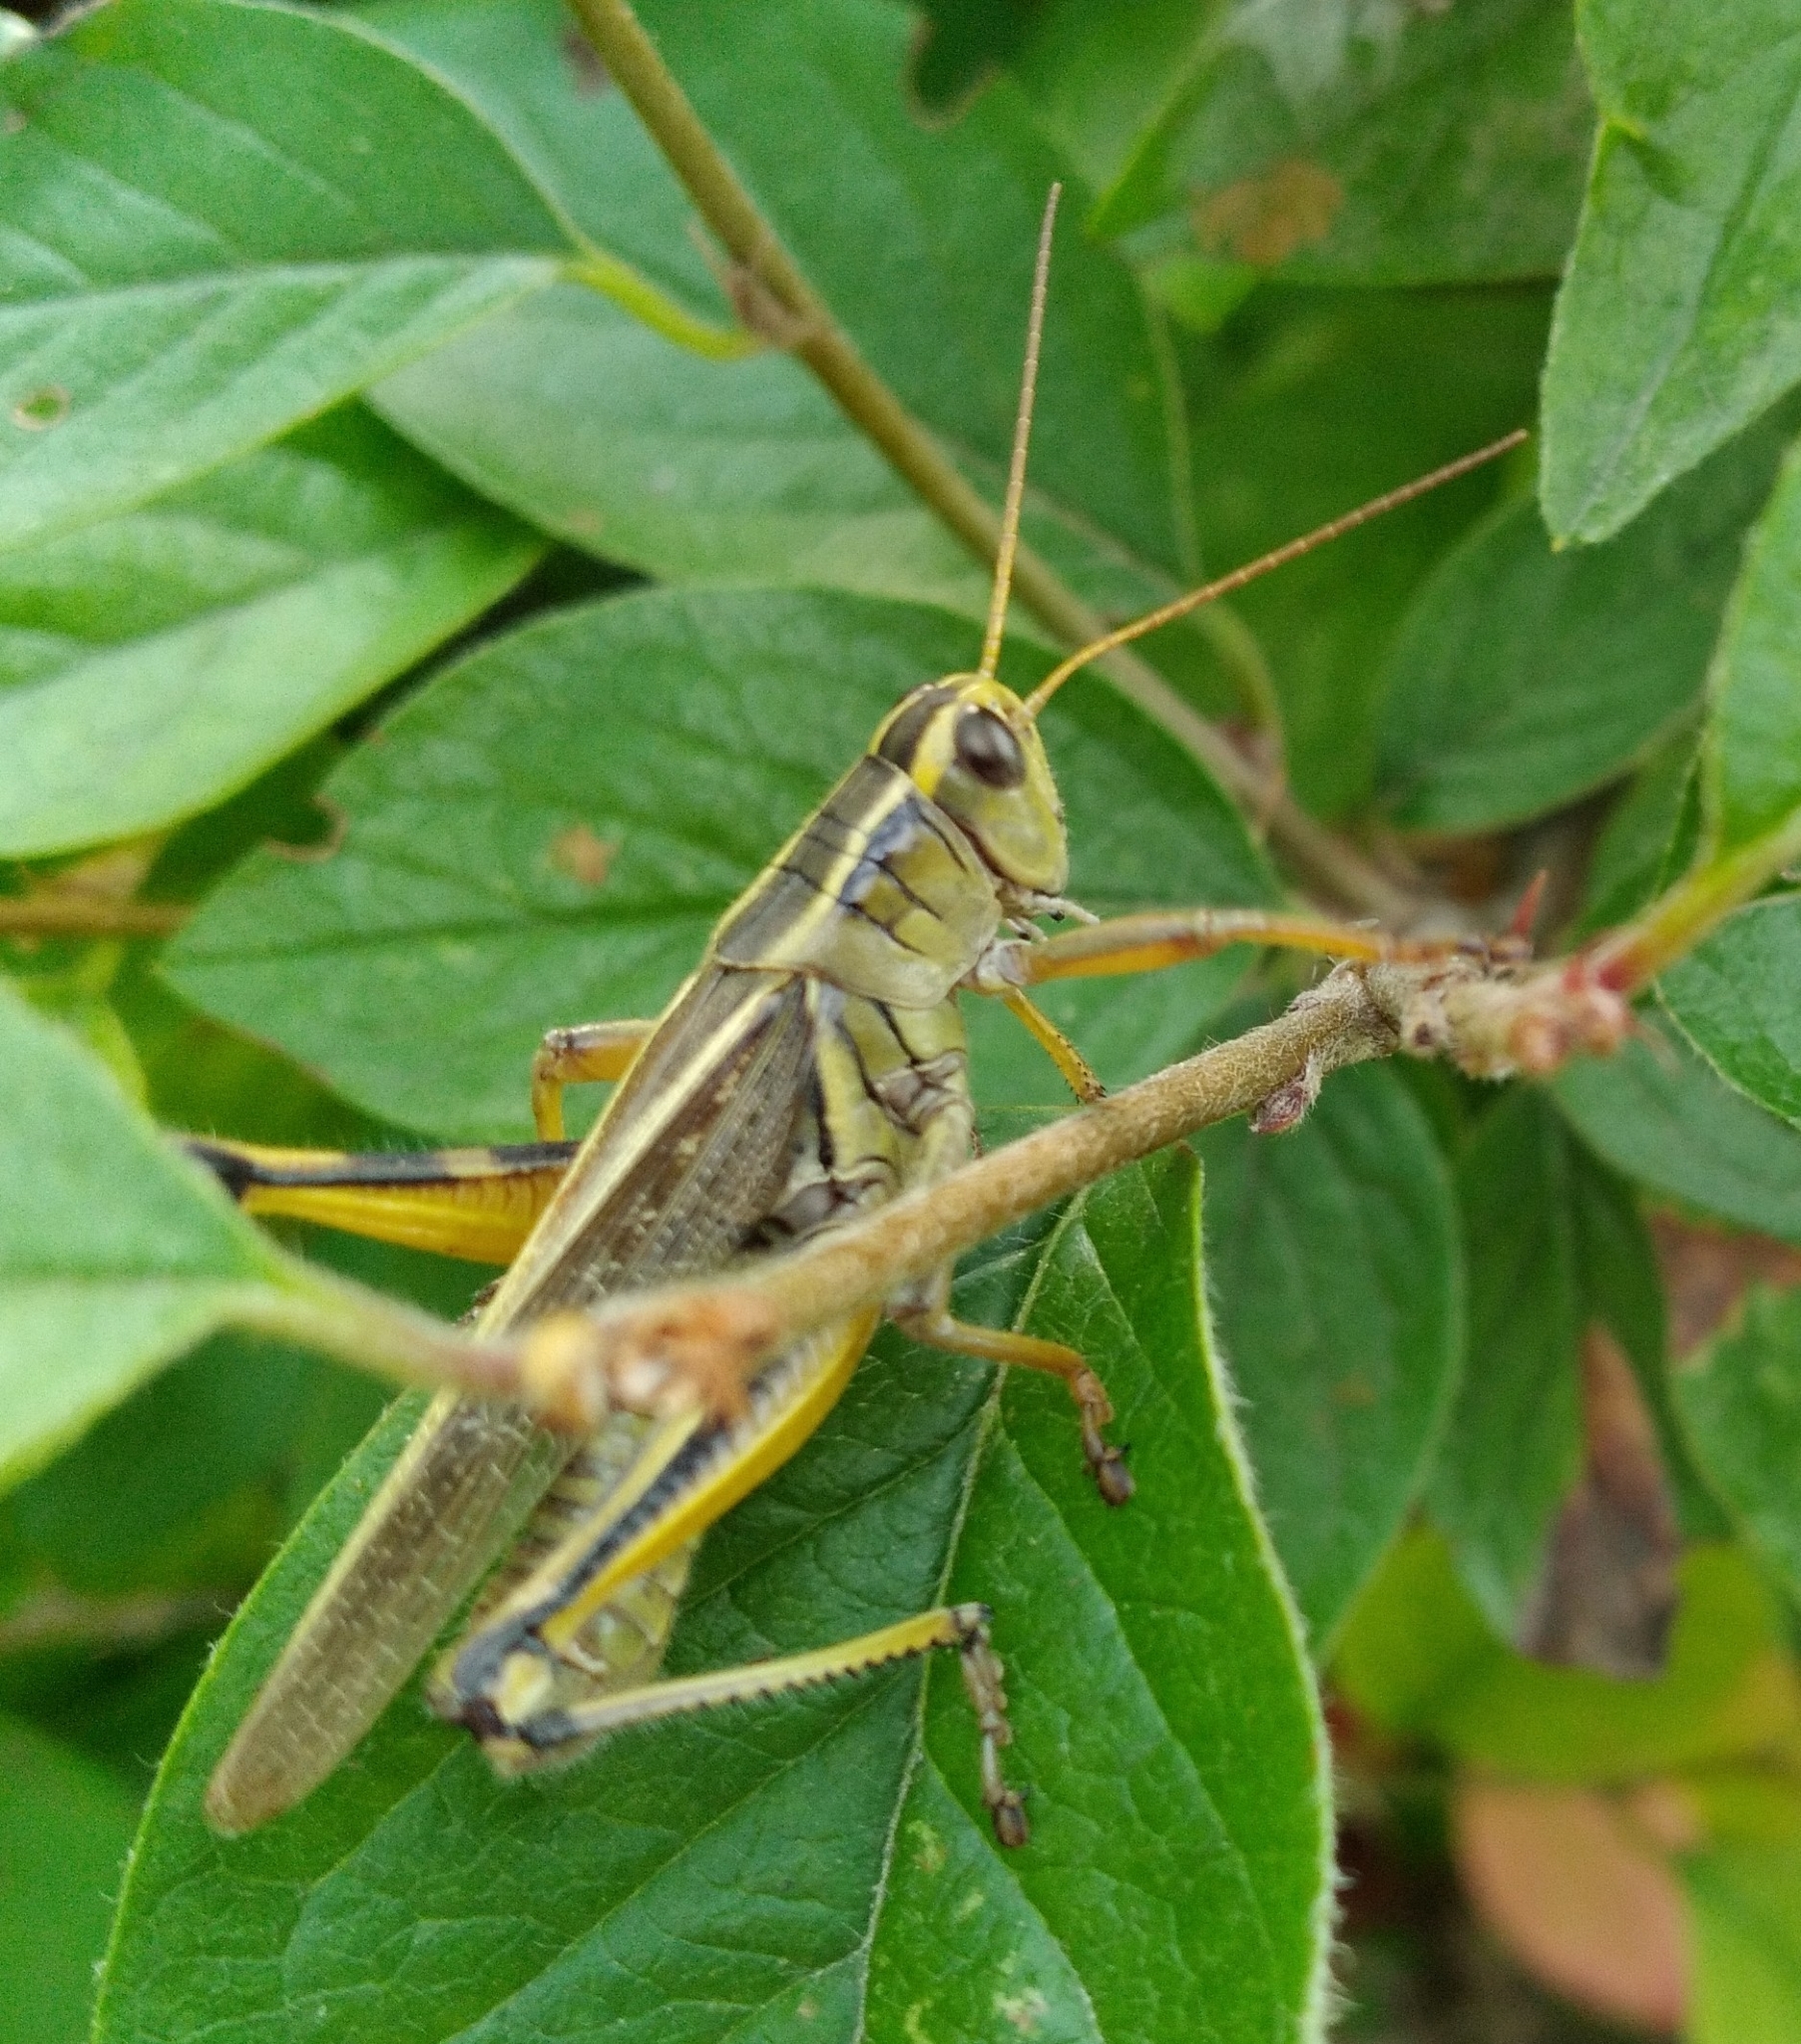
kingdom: Animalia
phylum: Arthropoda
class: Insecta
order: Orthoptera
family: Acrididae
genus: Melanoplus
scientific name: Melanoplus bivittatus
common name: Two-striped grasshopper
